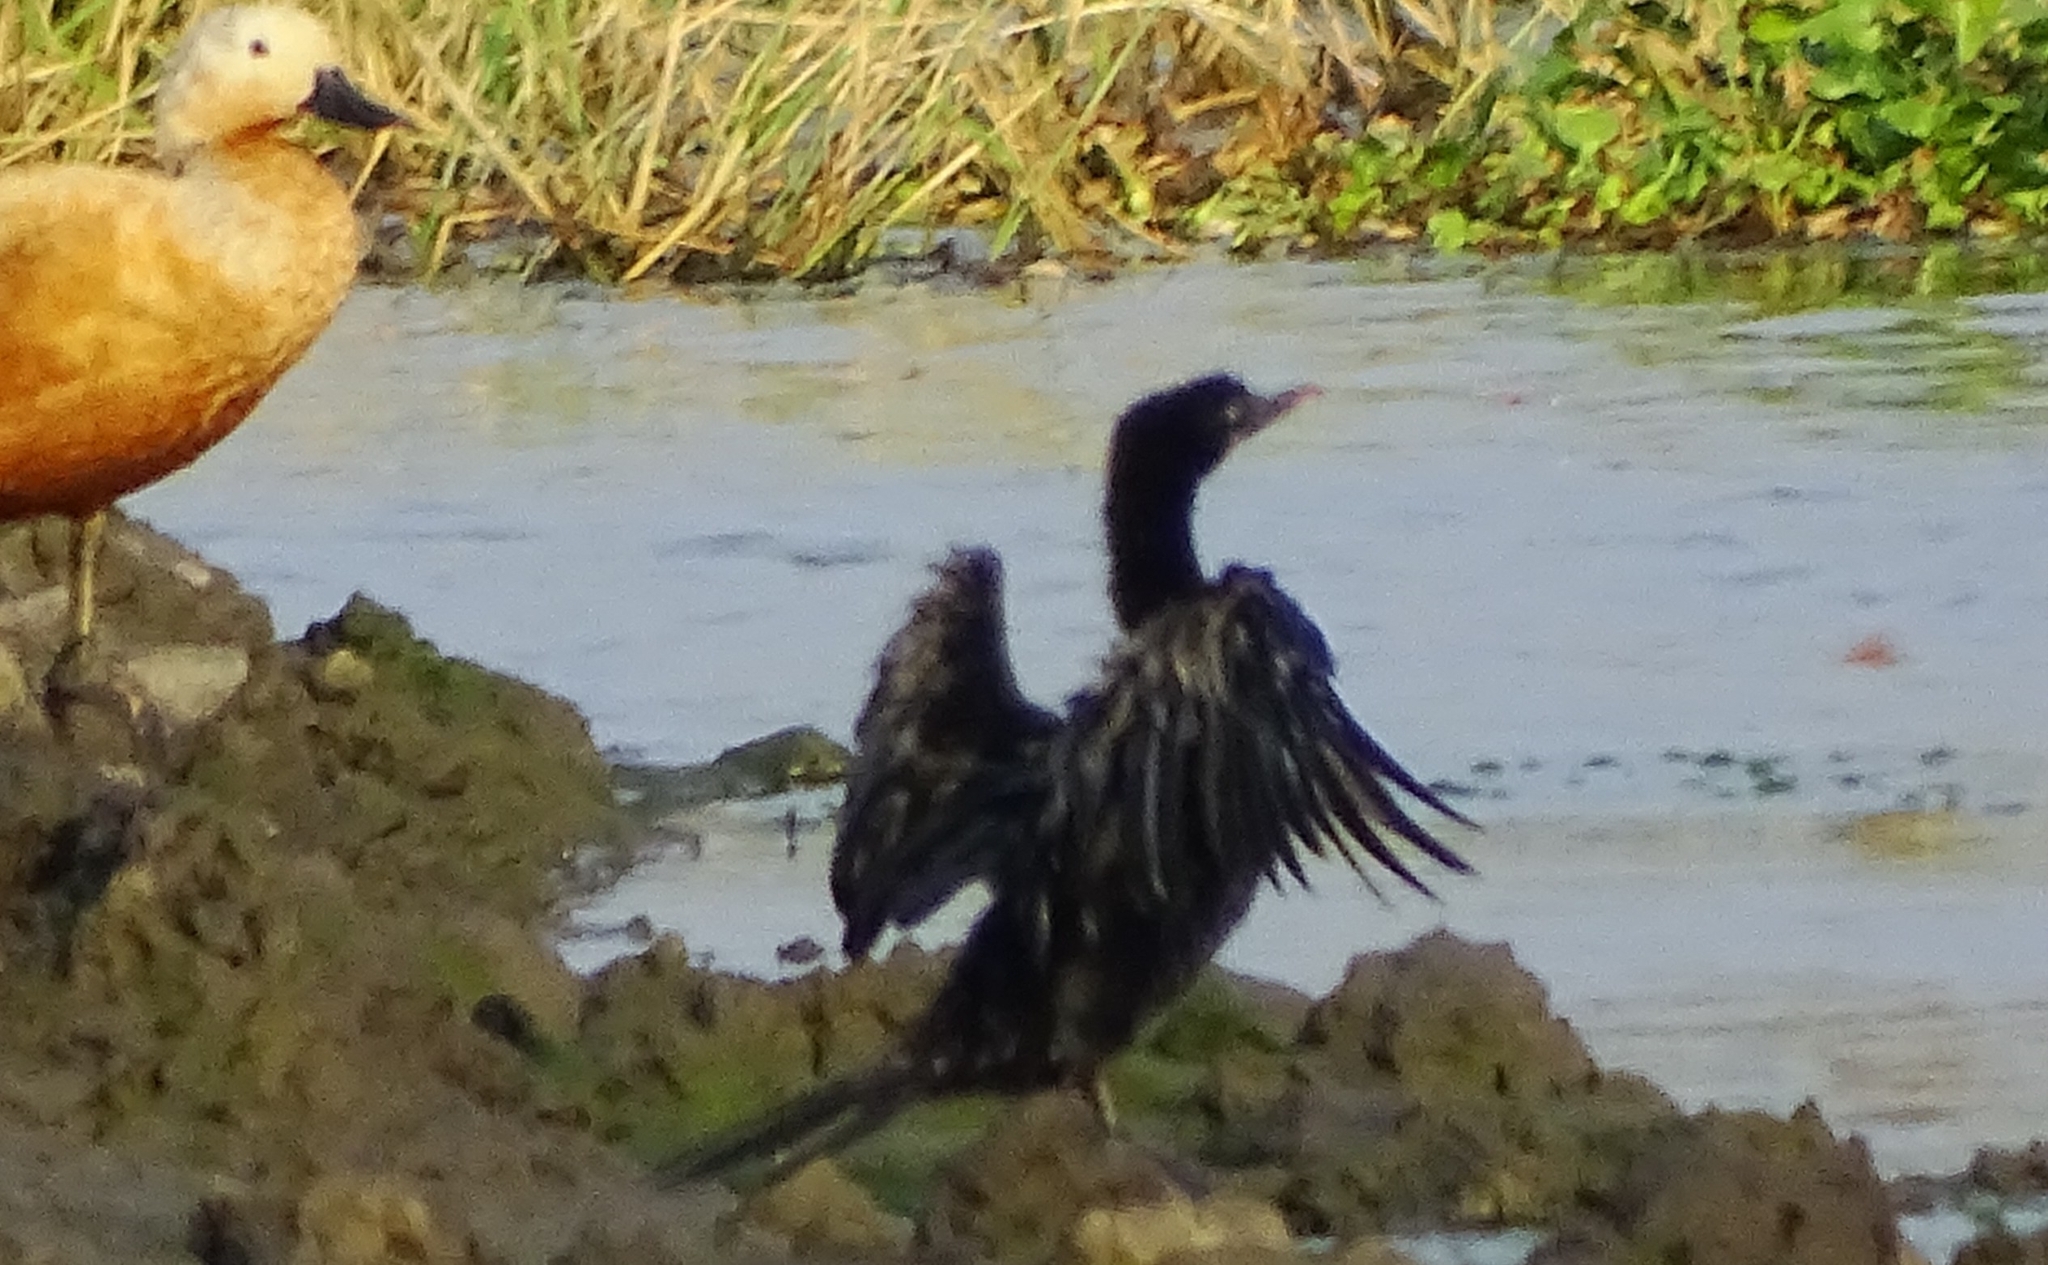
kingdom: Animalia
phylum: Chordata
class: Aves
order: Suliformes
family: Phalacrocoracidae
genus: Microcarbo
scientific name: Microcarbo niger
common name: Little cormorant
